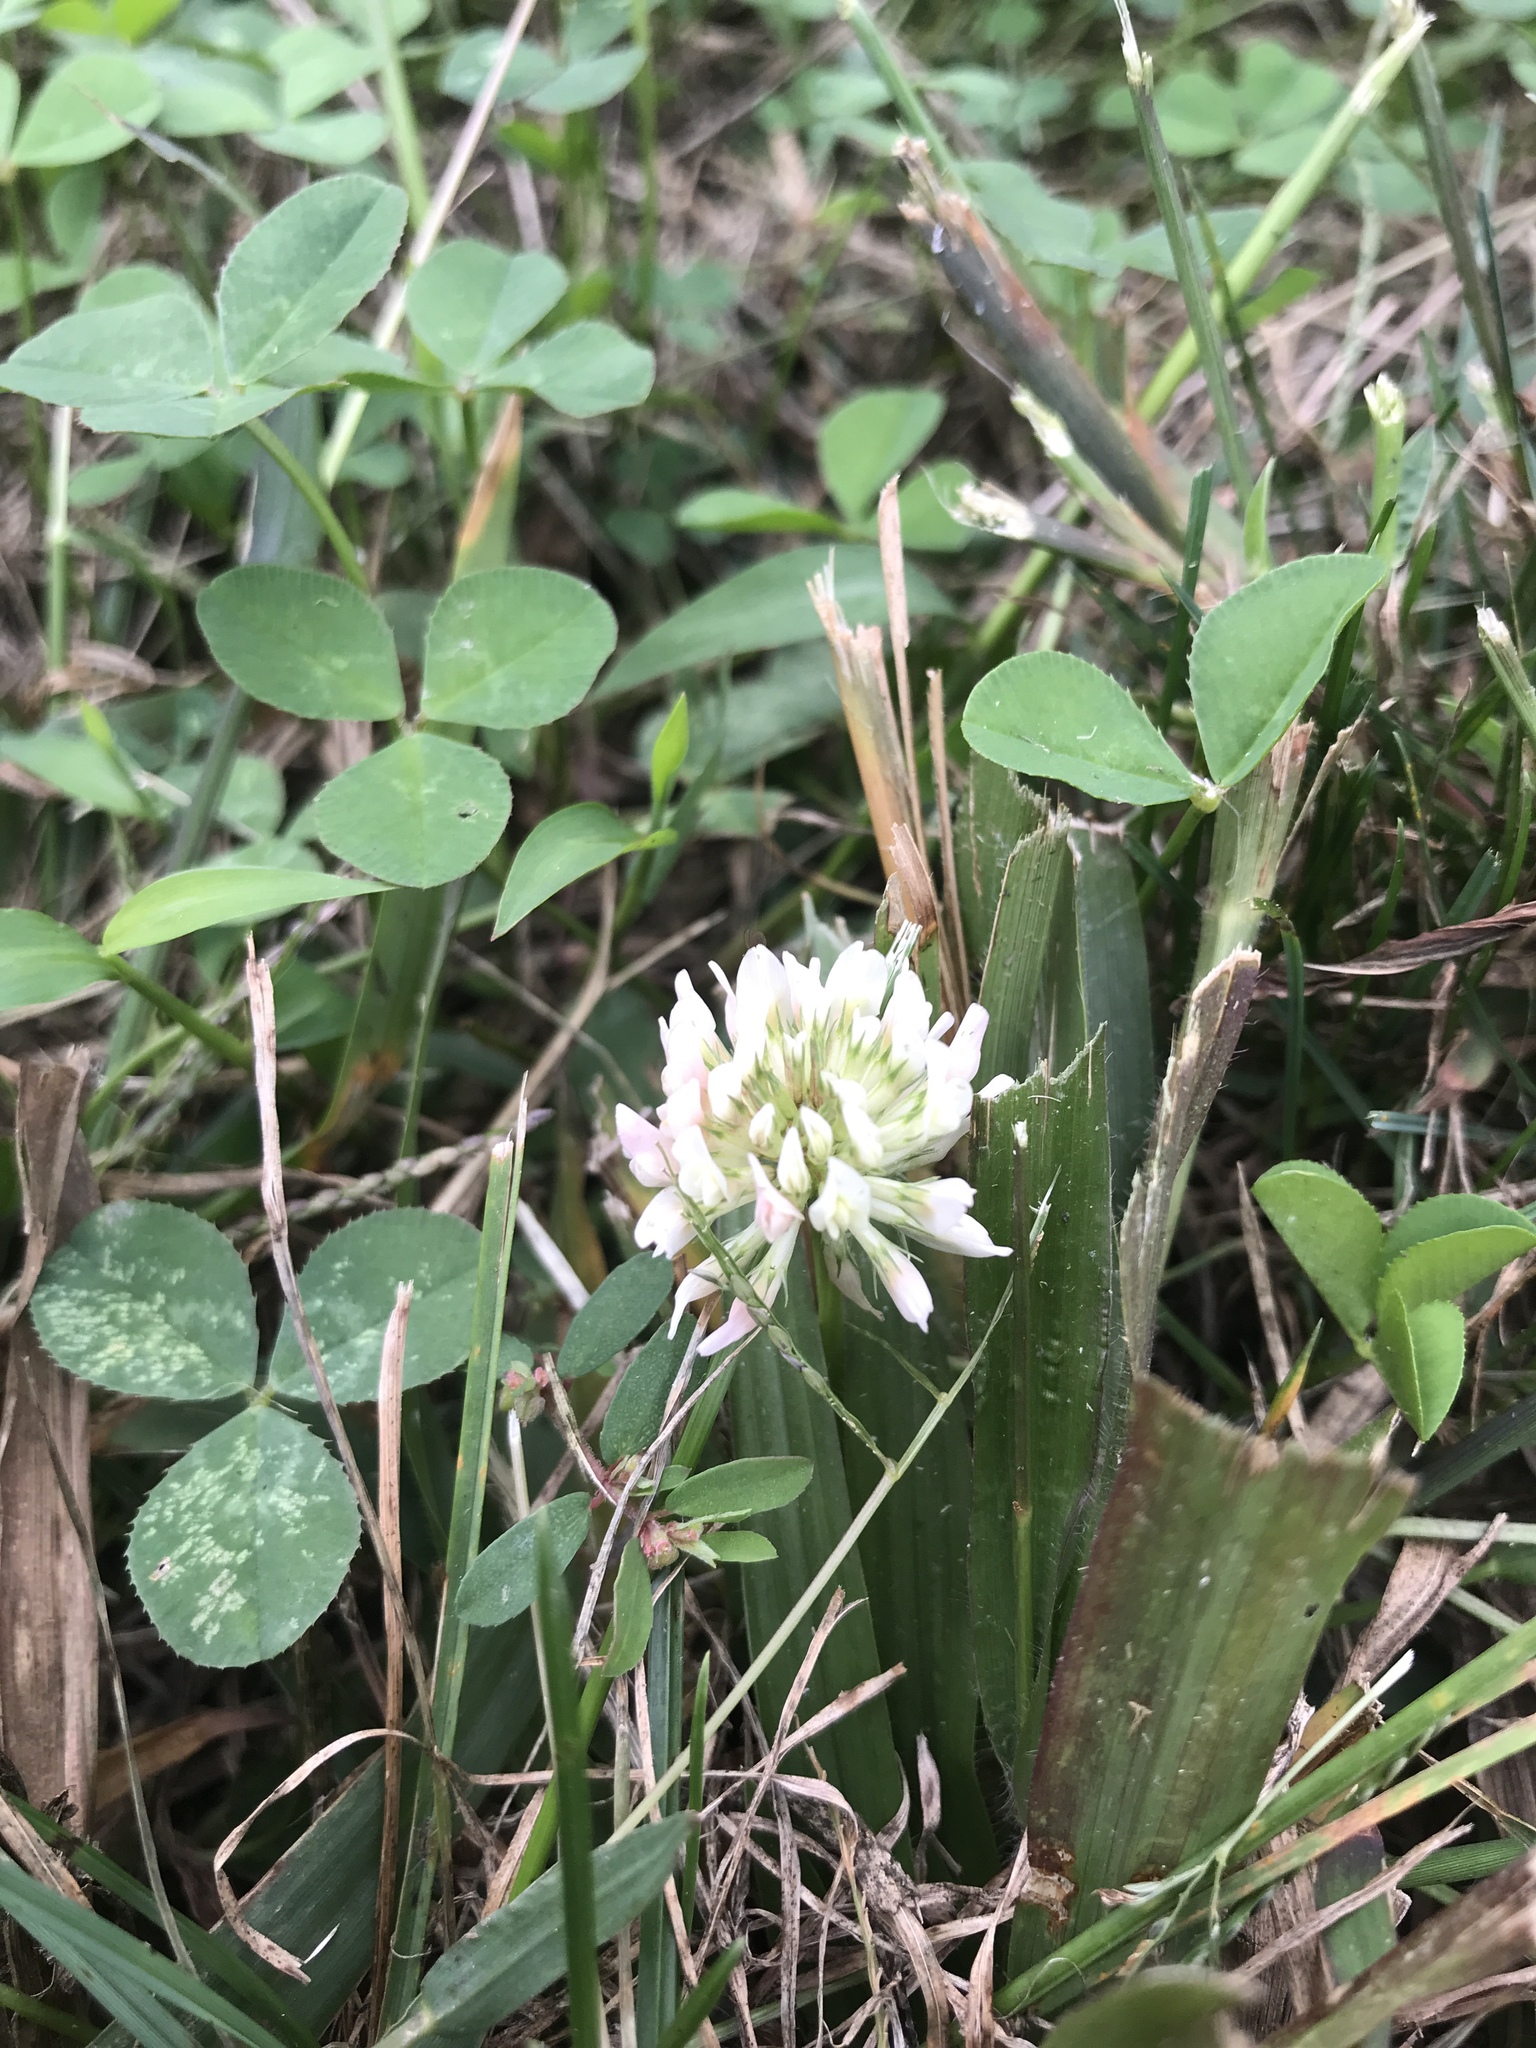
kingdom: Plantae
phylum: Tracheophyta
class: Magnoliopsida
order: Fabales
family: Fabaceae
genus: Trifolium
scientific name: Trifolium repens
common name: White clover
